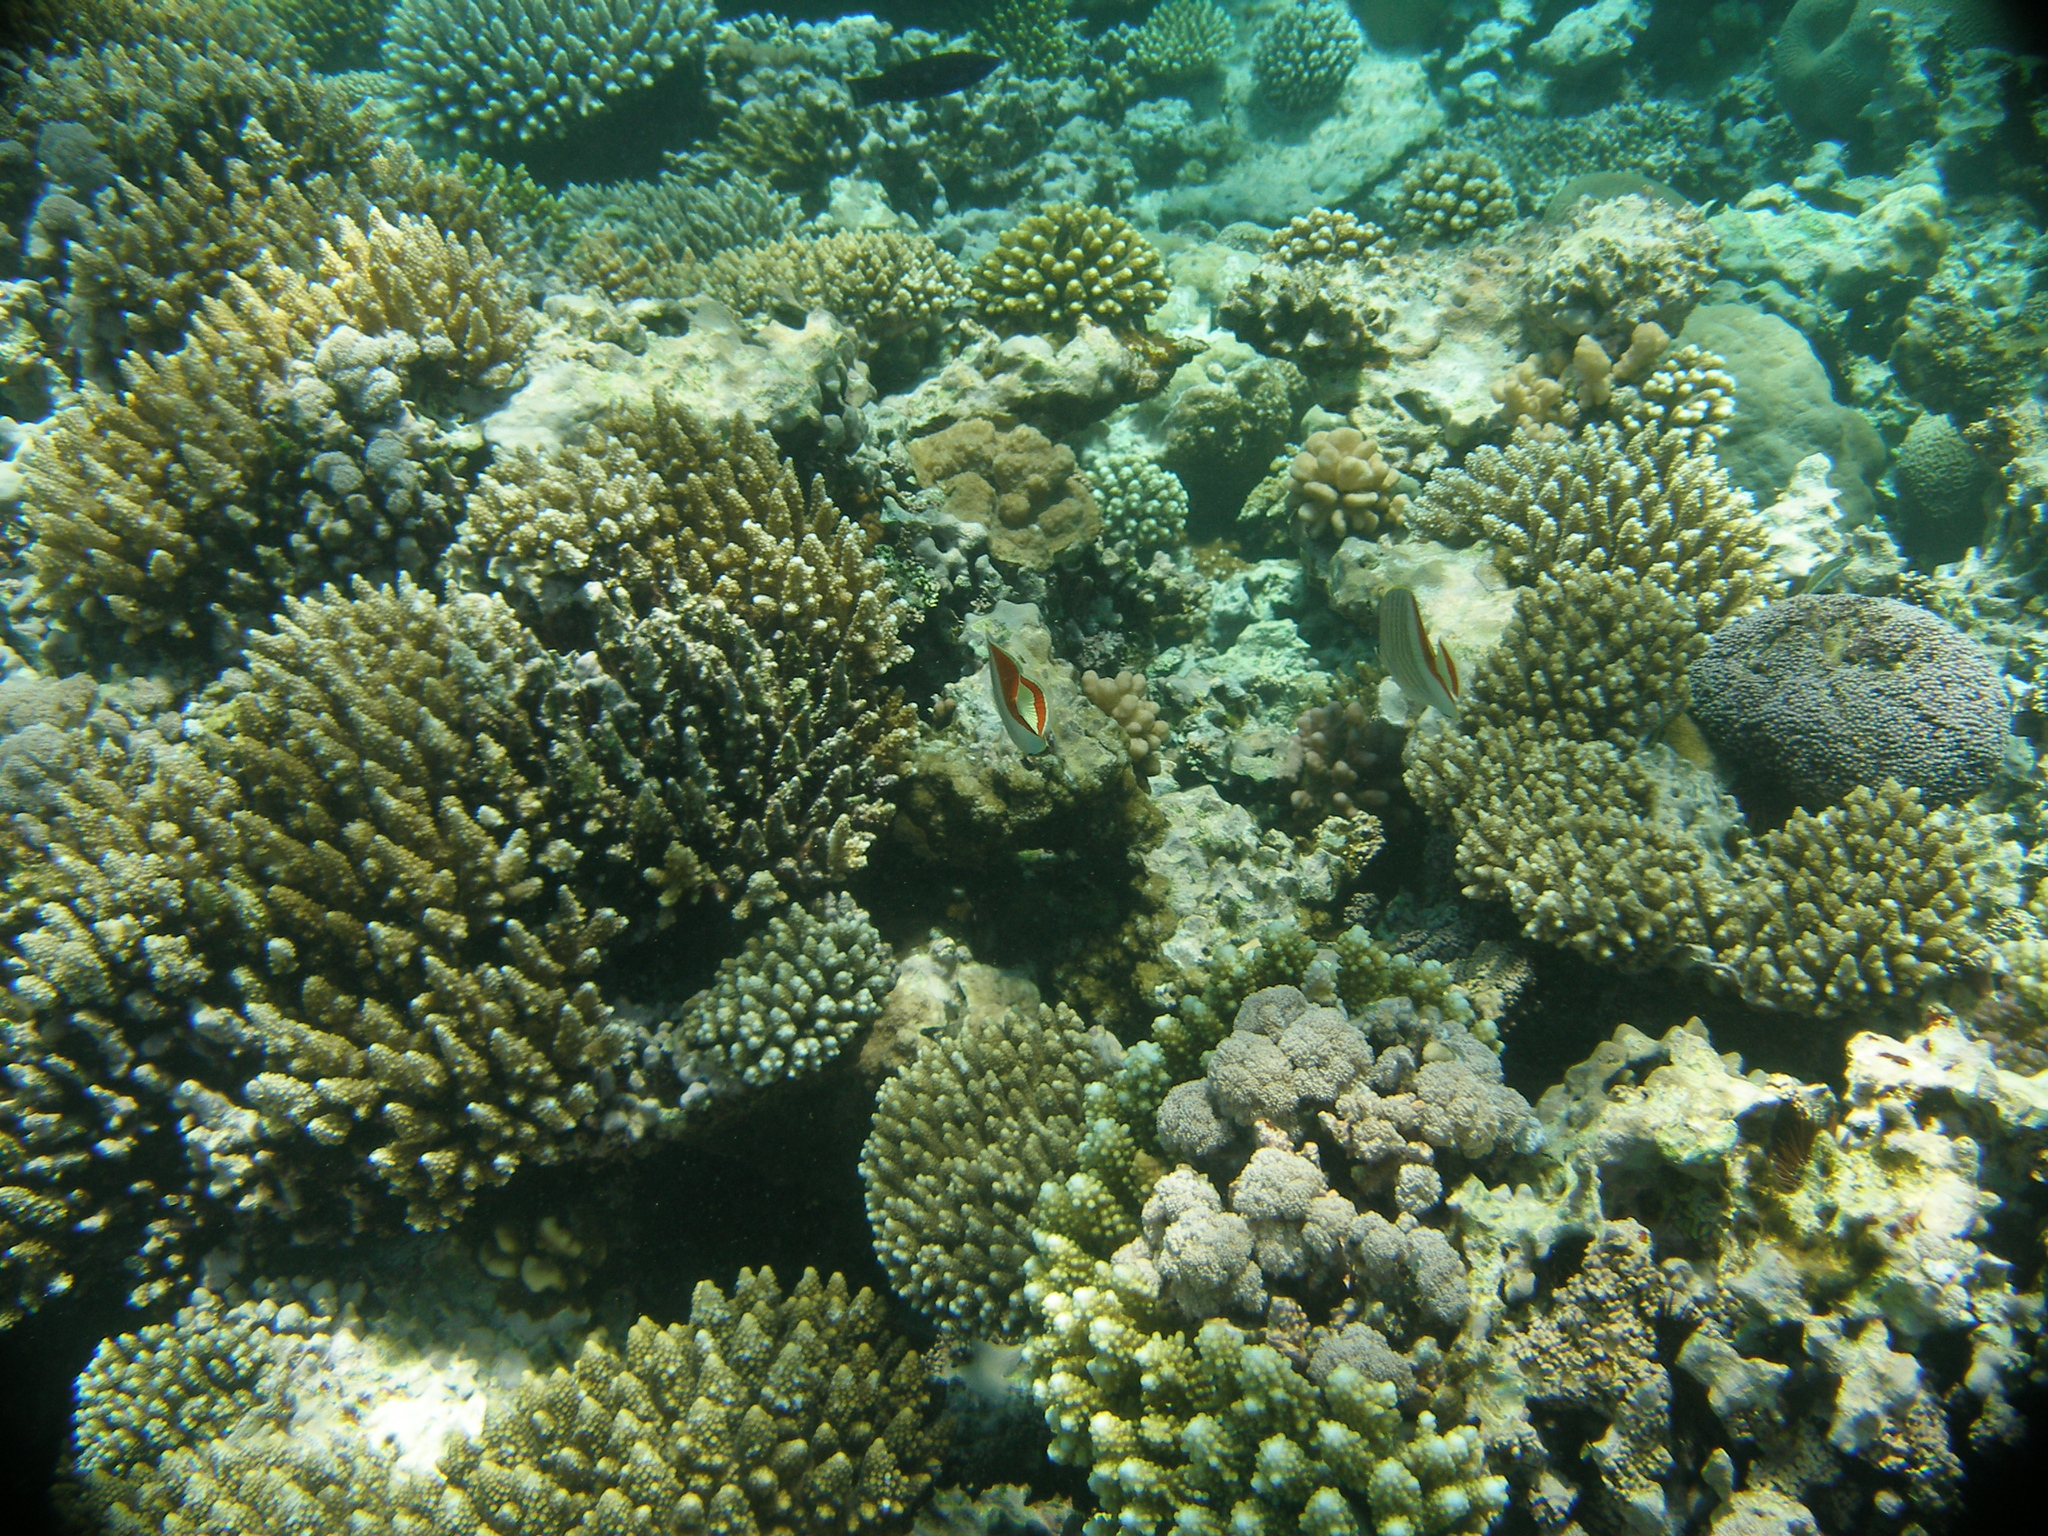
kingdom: Animalia
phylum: Chordata
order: Perciformes
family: Chaetodontidae
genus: Chaetodon
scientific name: Chaetodon paucifasciatus
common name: Crown butterflyfish
